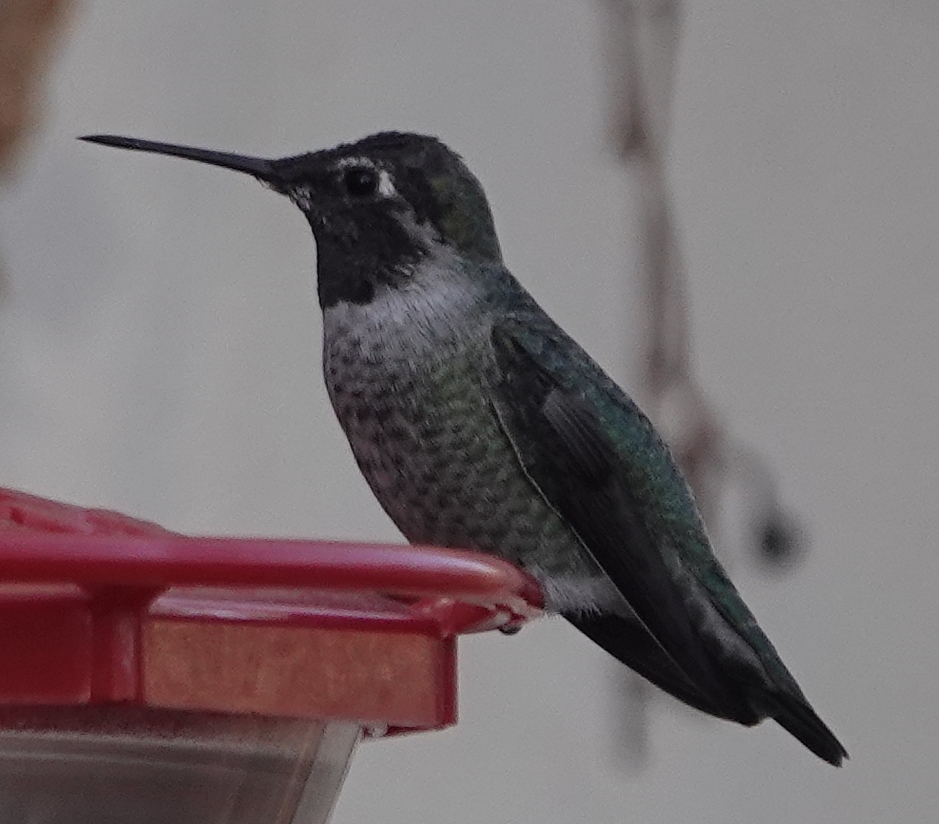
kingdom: Animalia
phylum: Chordata
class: Aves
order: Apodiformes
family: Trochilidae
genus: Calypte
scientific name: Calypte anna
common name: Anna's hummingbird
